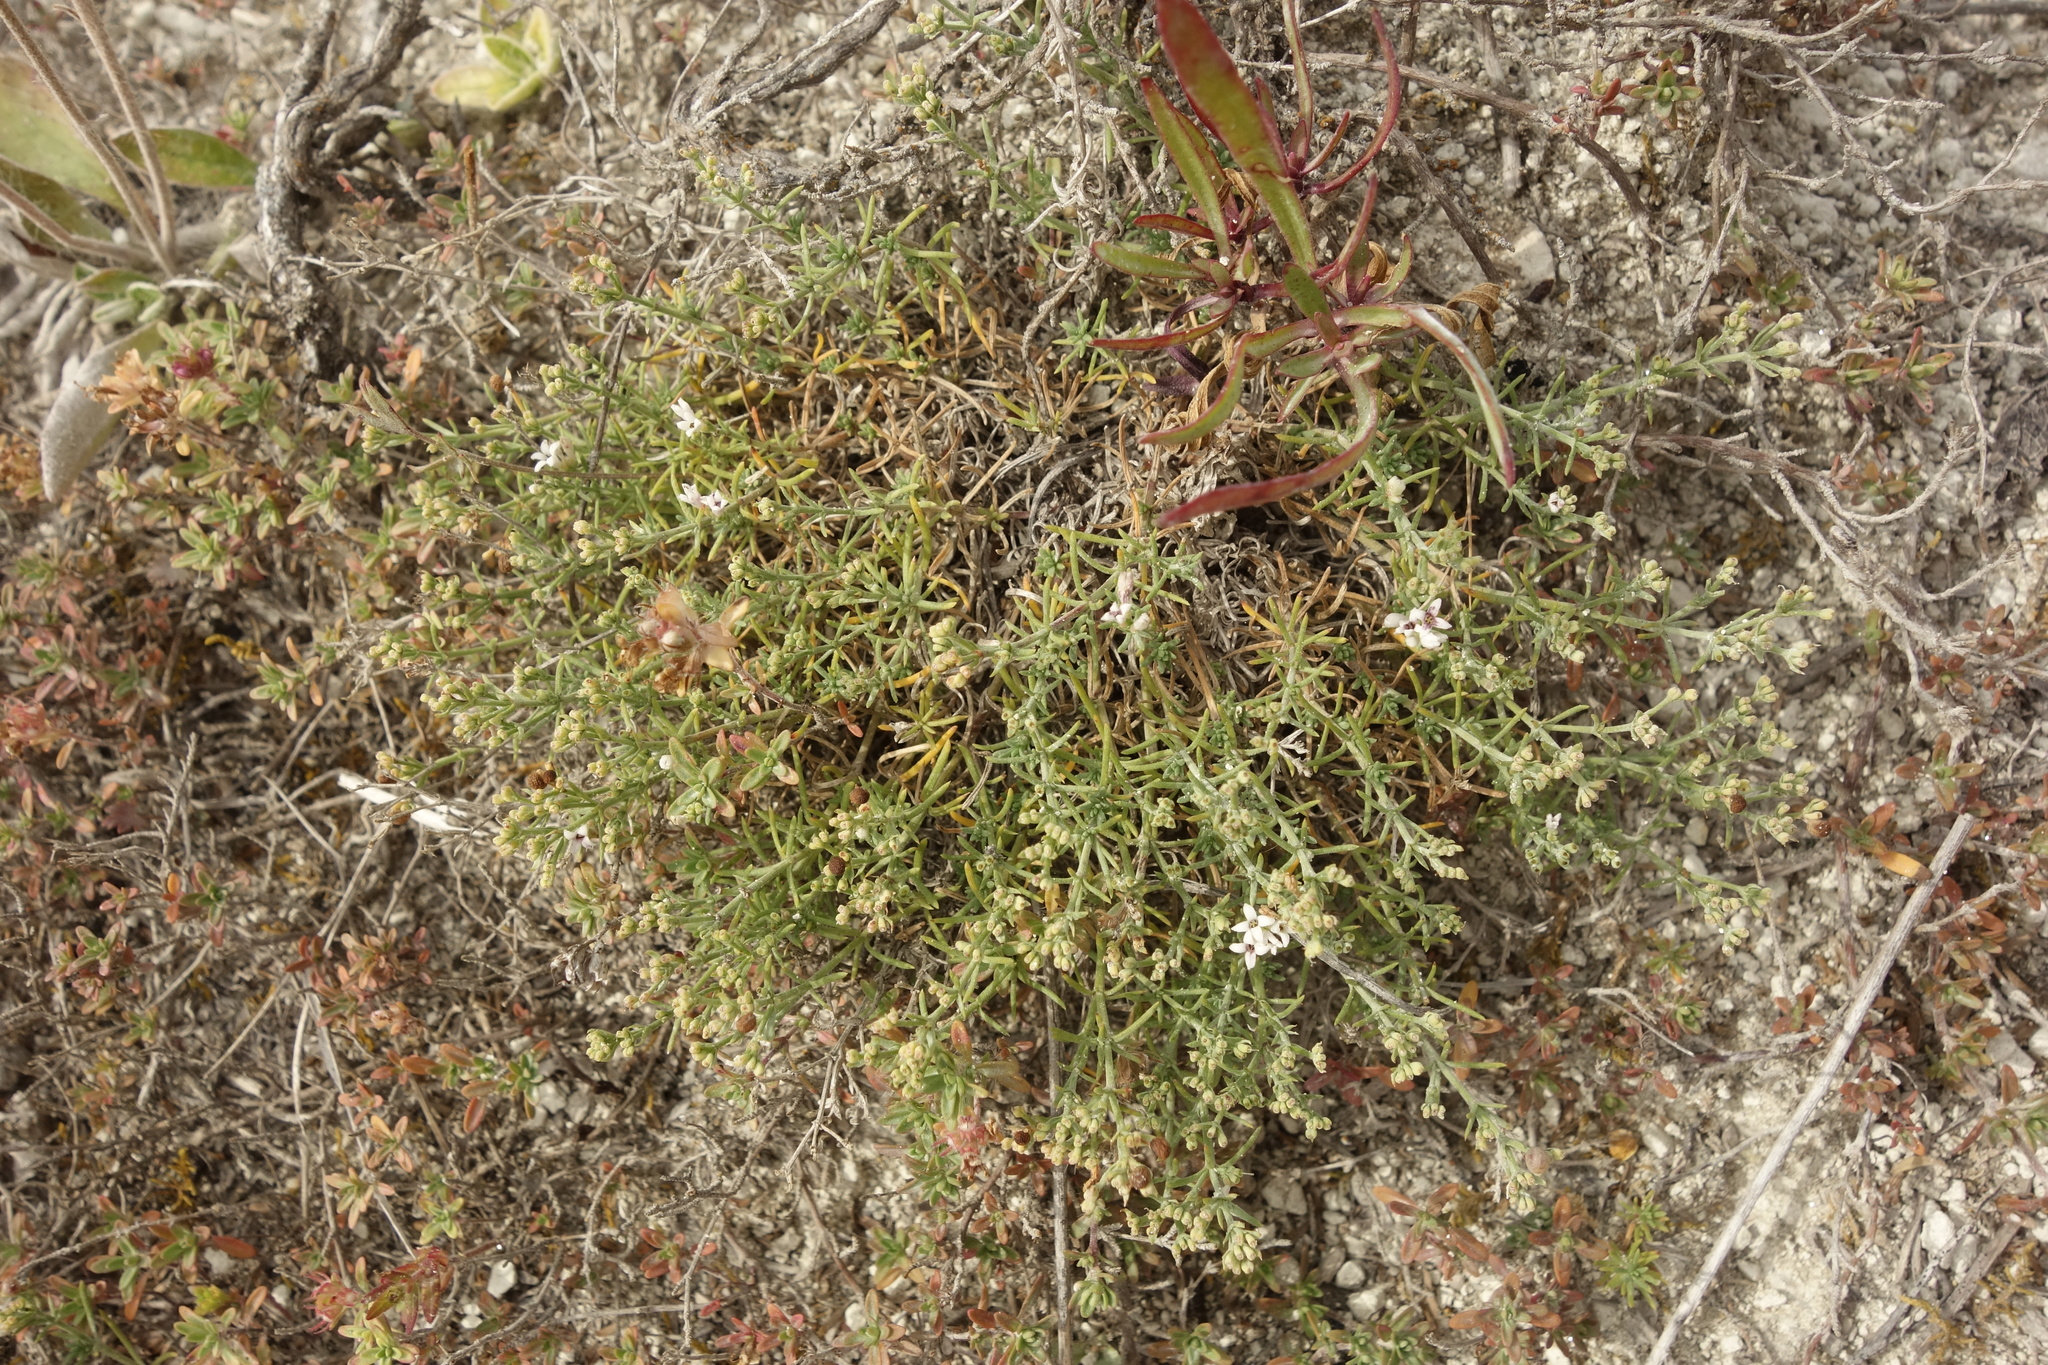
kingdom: Plantae
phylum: Tracheophyta
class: Magnoliopsida
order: Gentianales
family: Rubiaceae
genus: Cynanchica
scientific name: Cynanchica tephrocarpa
